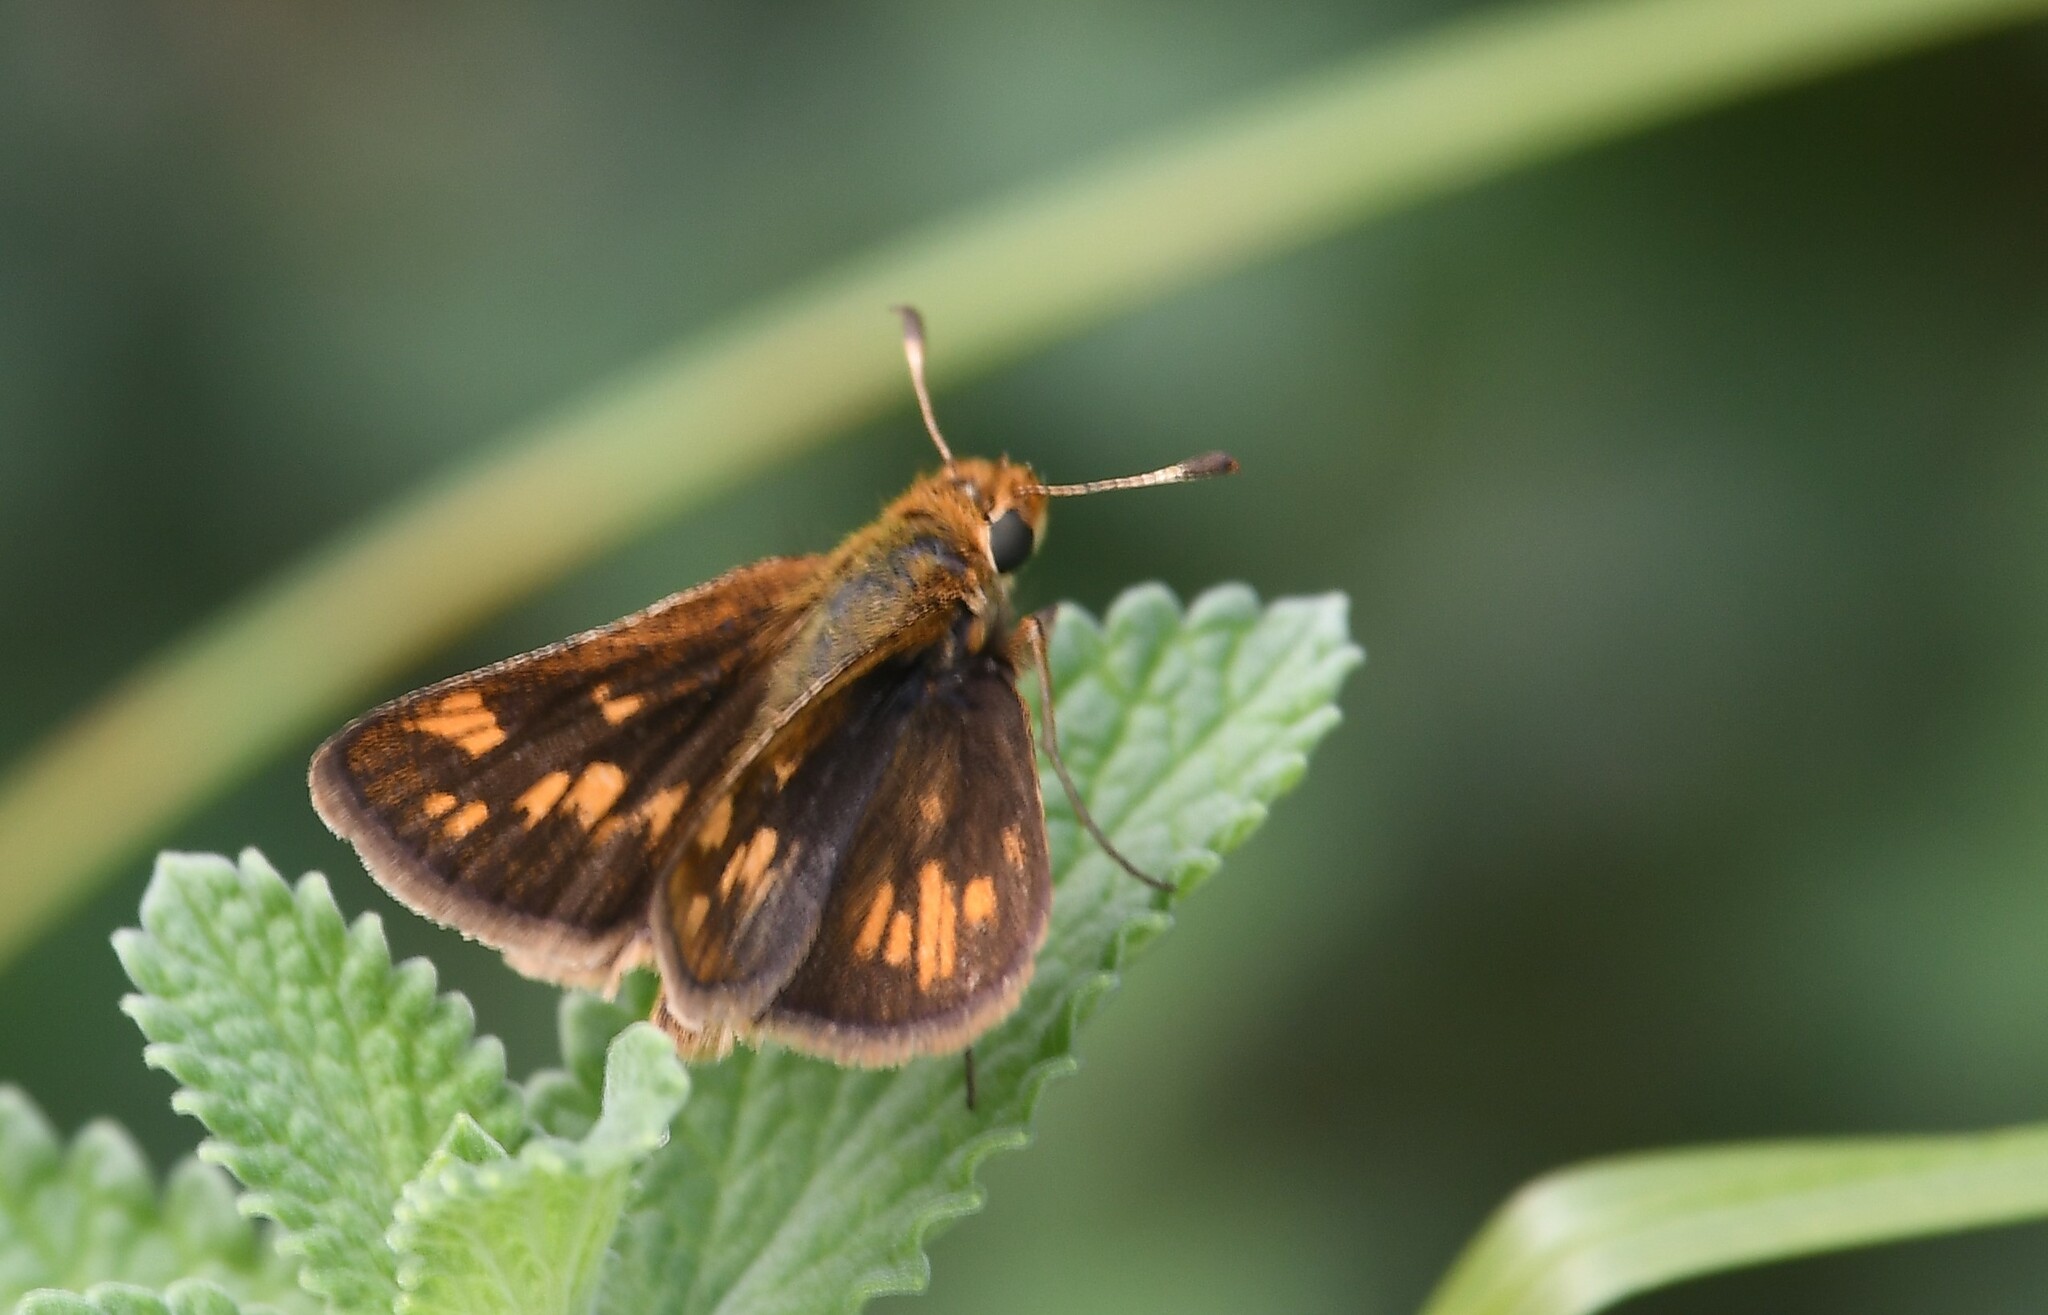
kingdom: Animalia
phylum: Arthropoda
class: Insecta
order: Lepidoptera
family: Hesperiidae
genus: Polites
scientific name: Polites coras
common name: Peck's skipper
